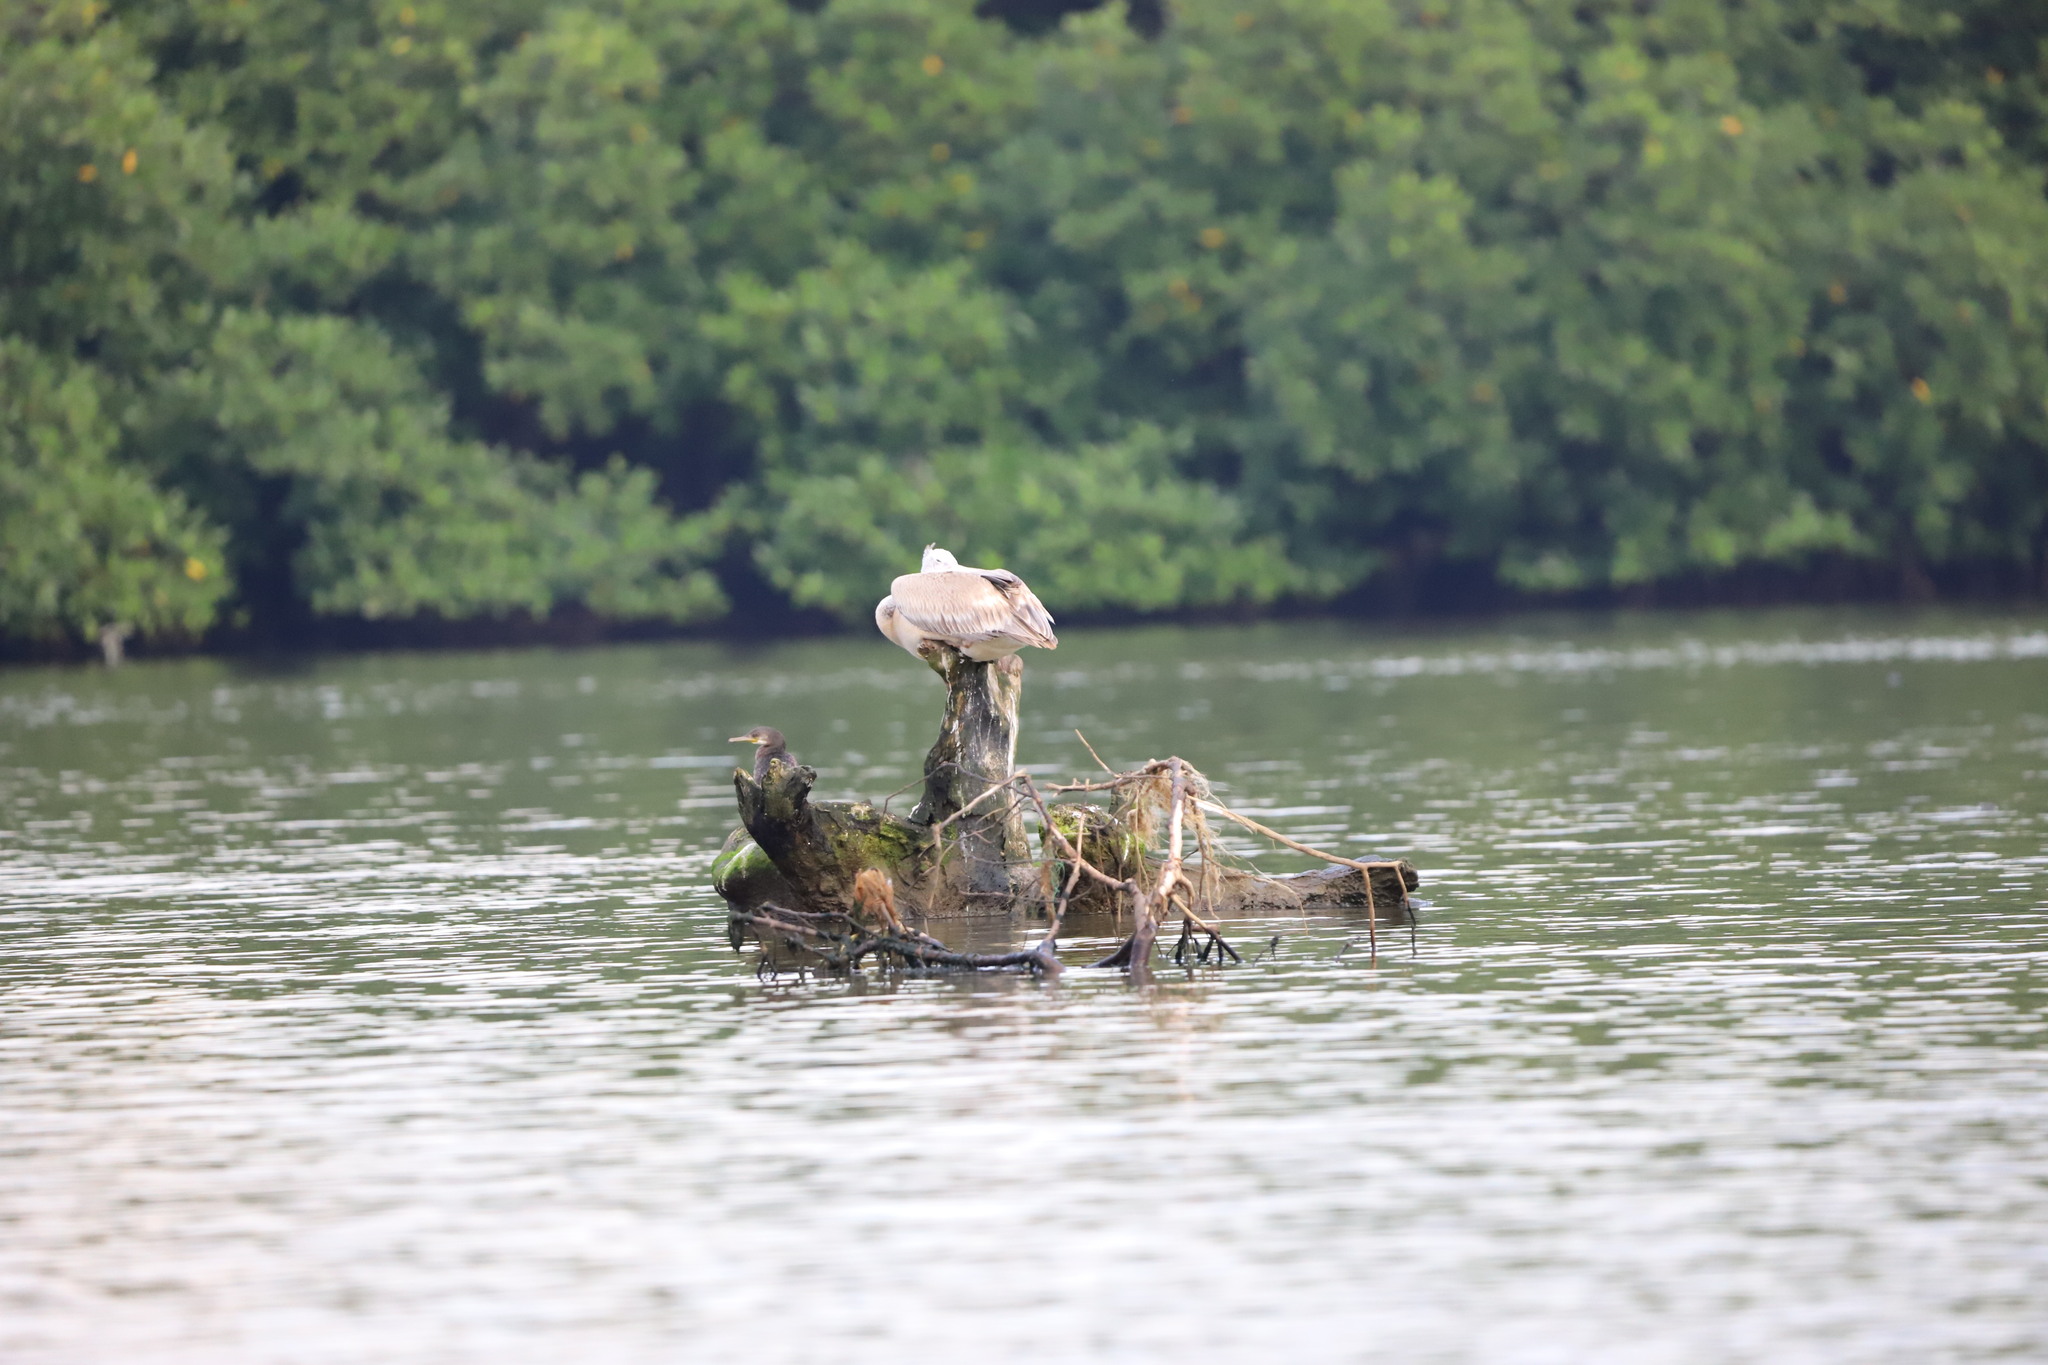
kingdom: Animalia
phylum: Chordata
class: Aves
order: Pelecaniformes
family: Pelecanidae
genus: Pelecanus
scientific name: Pelecanus philippensis
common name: Spot-billed pelican
